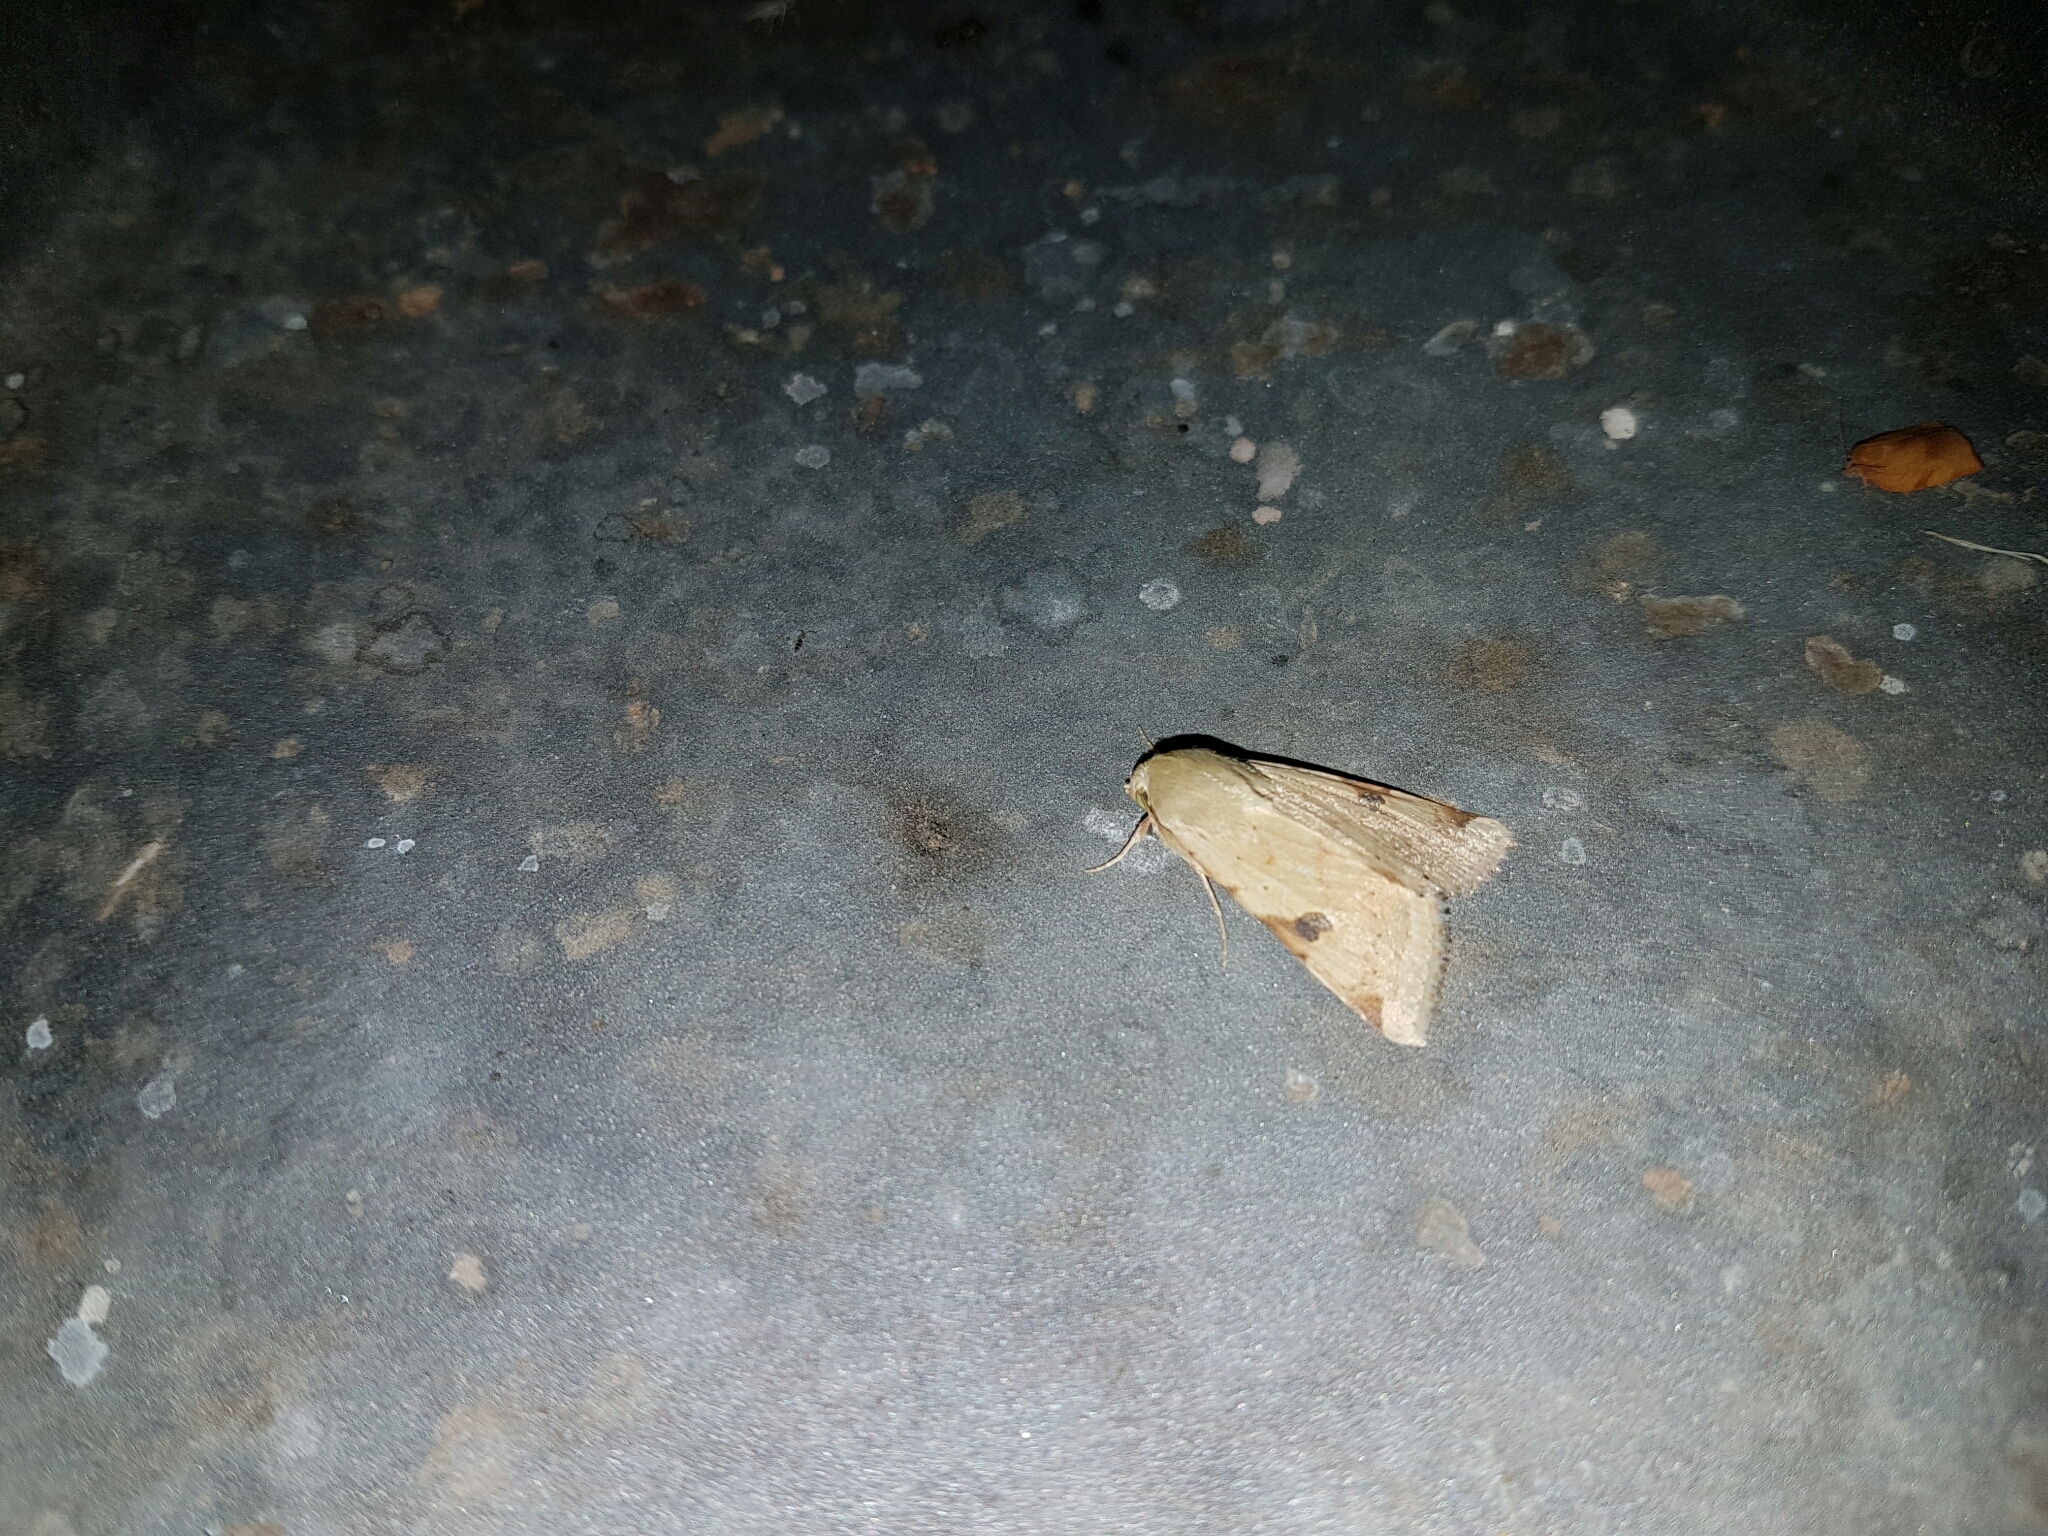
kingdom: Animalia
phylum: Arthropoda
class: Insecta
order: Lepidoptera
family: Noctuidae
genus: Heliothis
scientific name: Heliothis peltigera
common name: Bordered straw
